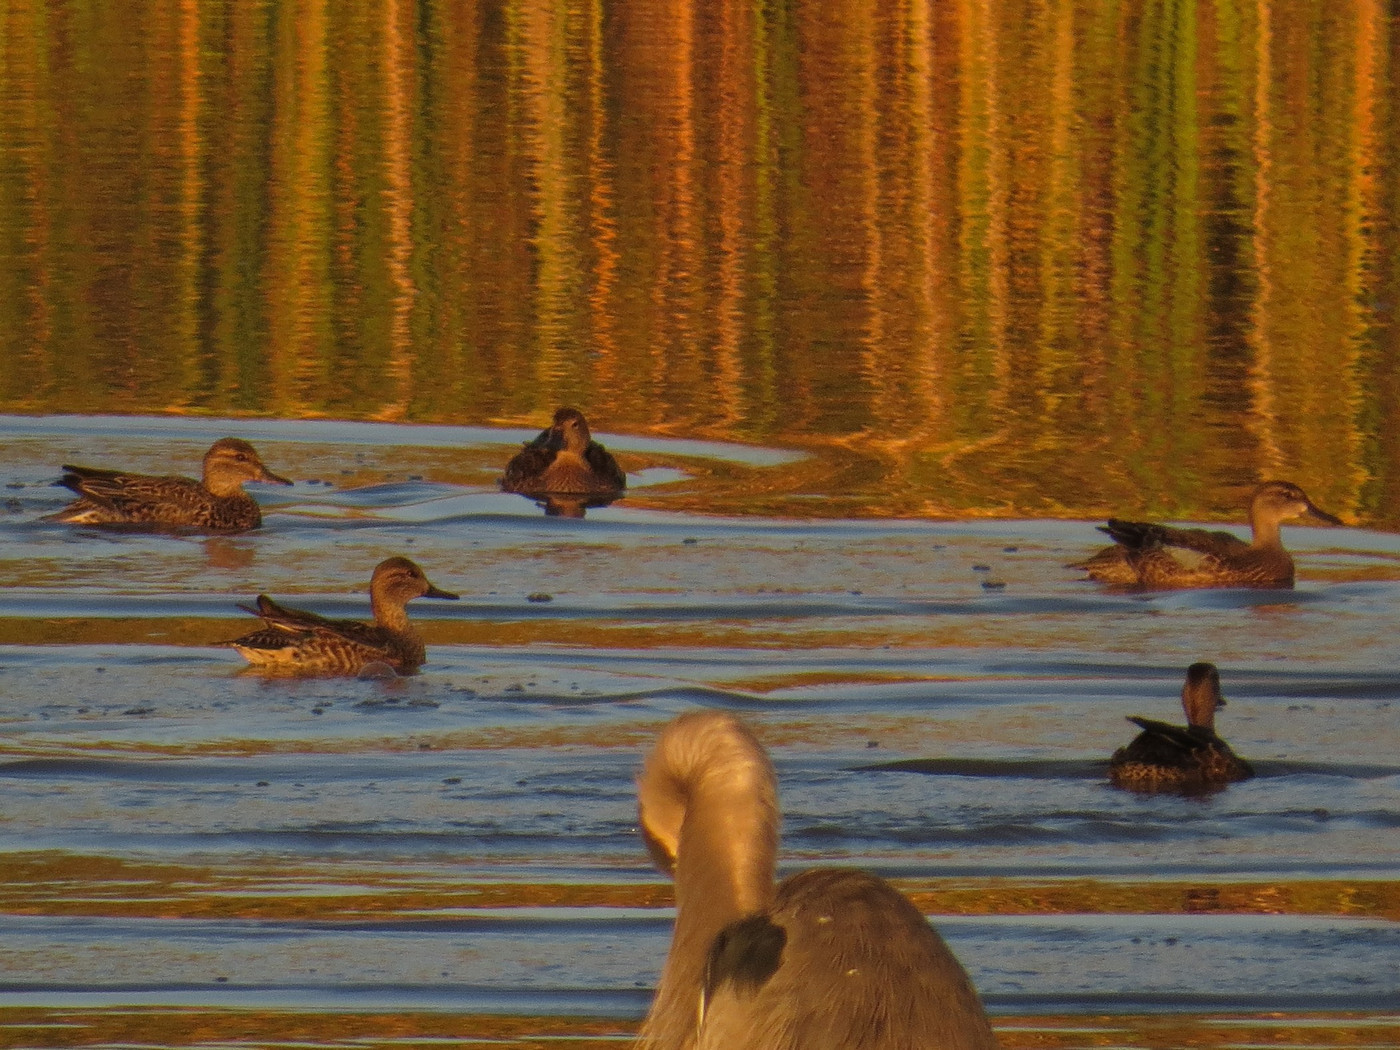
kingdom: Animalia
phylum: Chordata
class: Aves
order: Anseriformes
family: Anatidae
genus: Spatula
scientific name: Spatula discors
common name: Blue-winged teal
